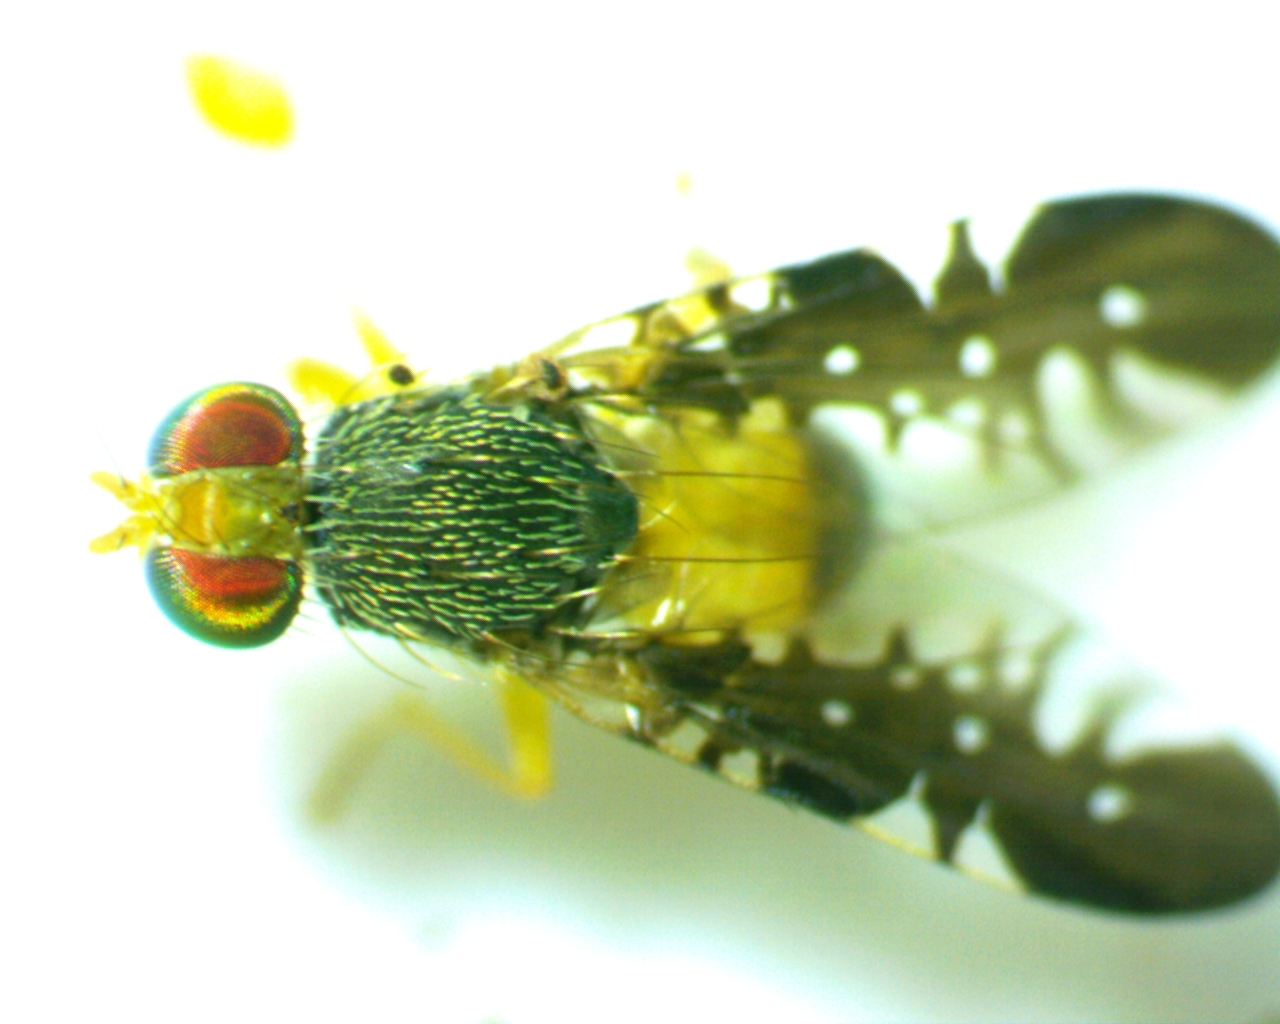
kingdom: Animalia
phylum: Arthropoda
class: Insecta
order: Diptera
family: Tephritidae
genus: Xanthaciura
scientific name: Xanthaciura tetraspina
